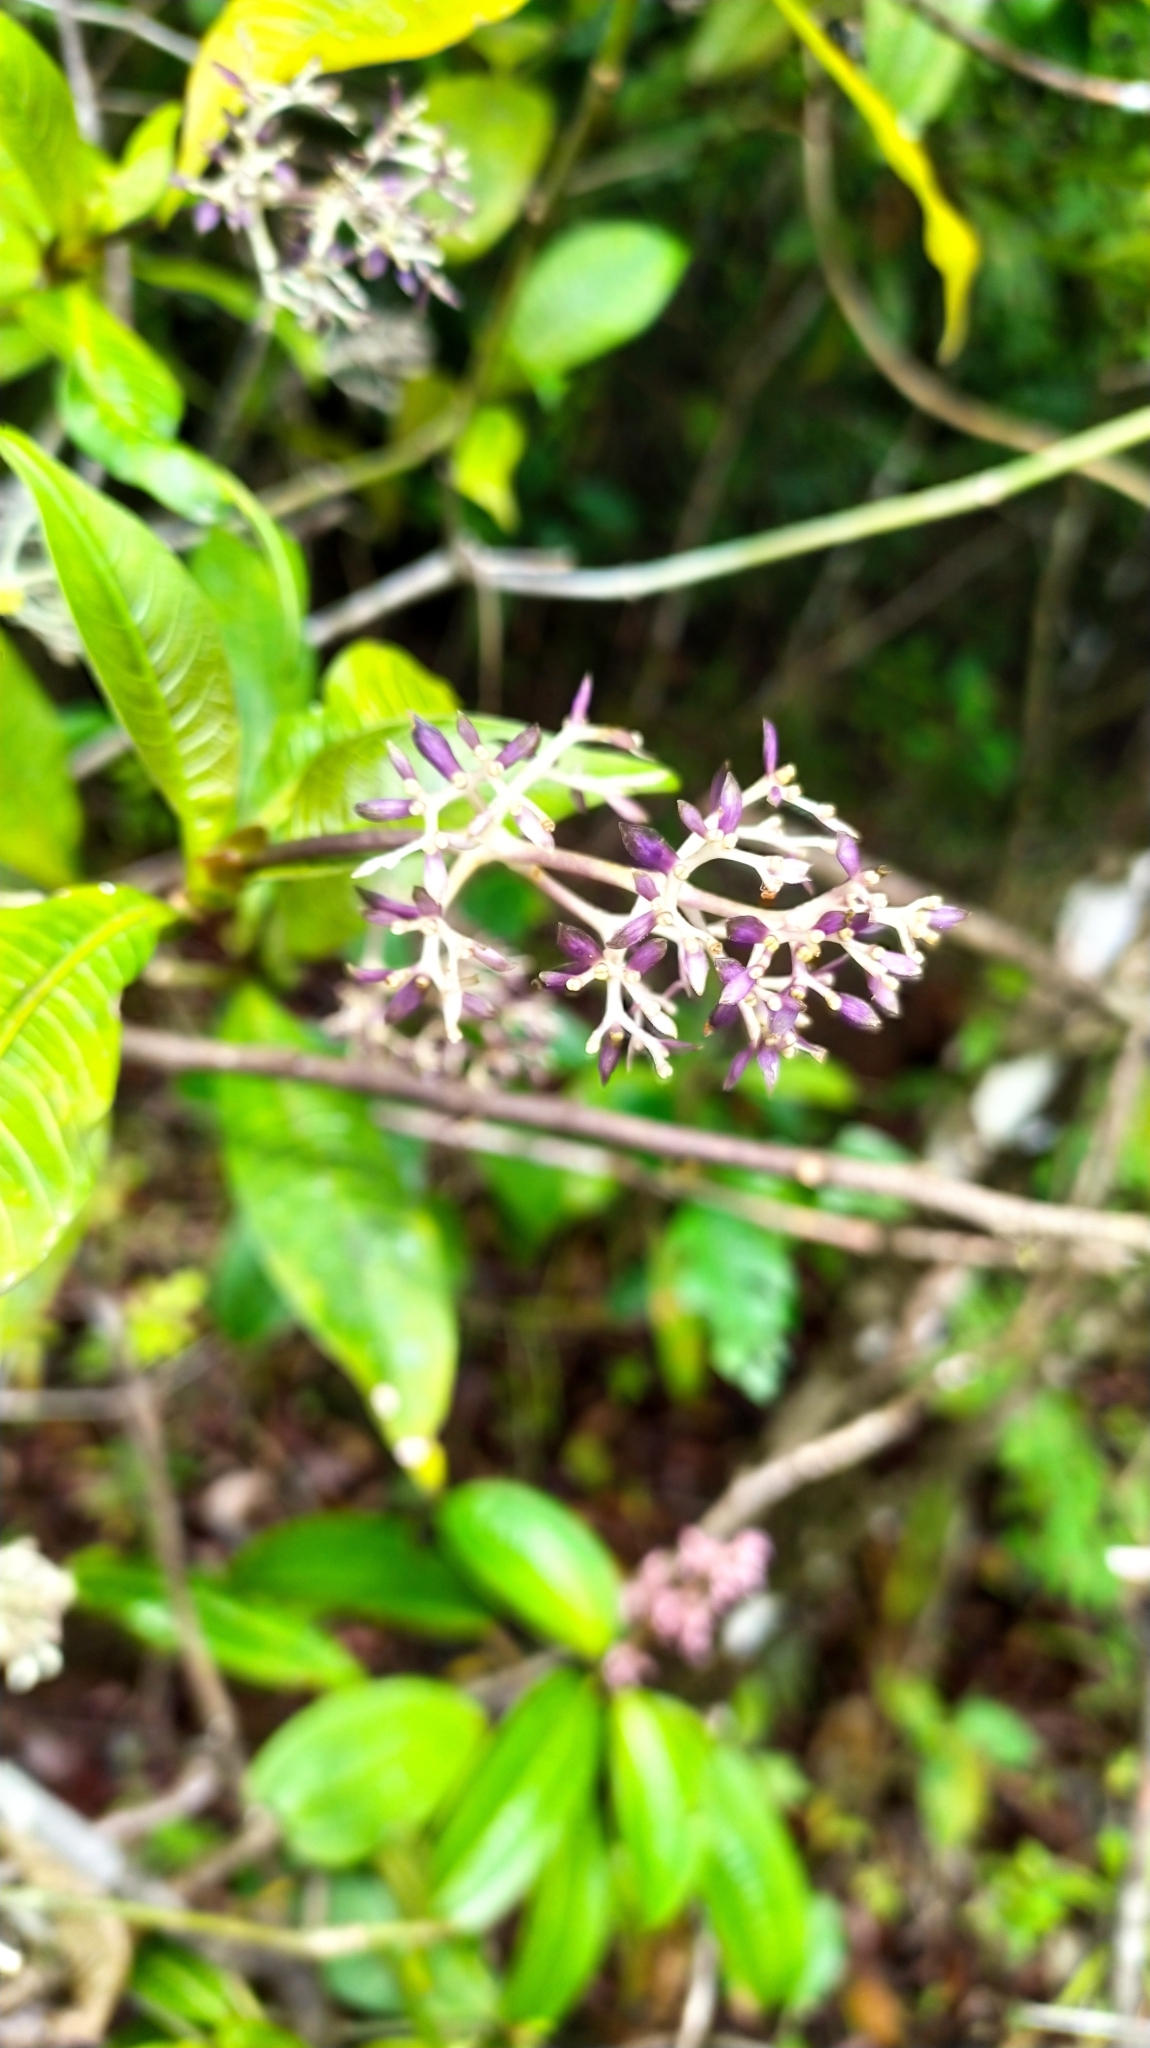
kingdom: Plantae
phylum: Tracheophyta
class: Magnoliopsida
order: Gentianales
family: Rubiaceae
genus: Palicourea
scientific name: Palicourea violacea
